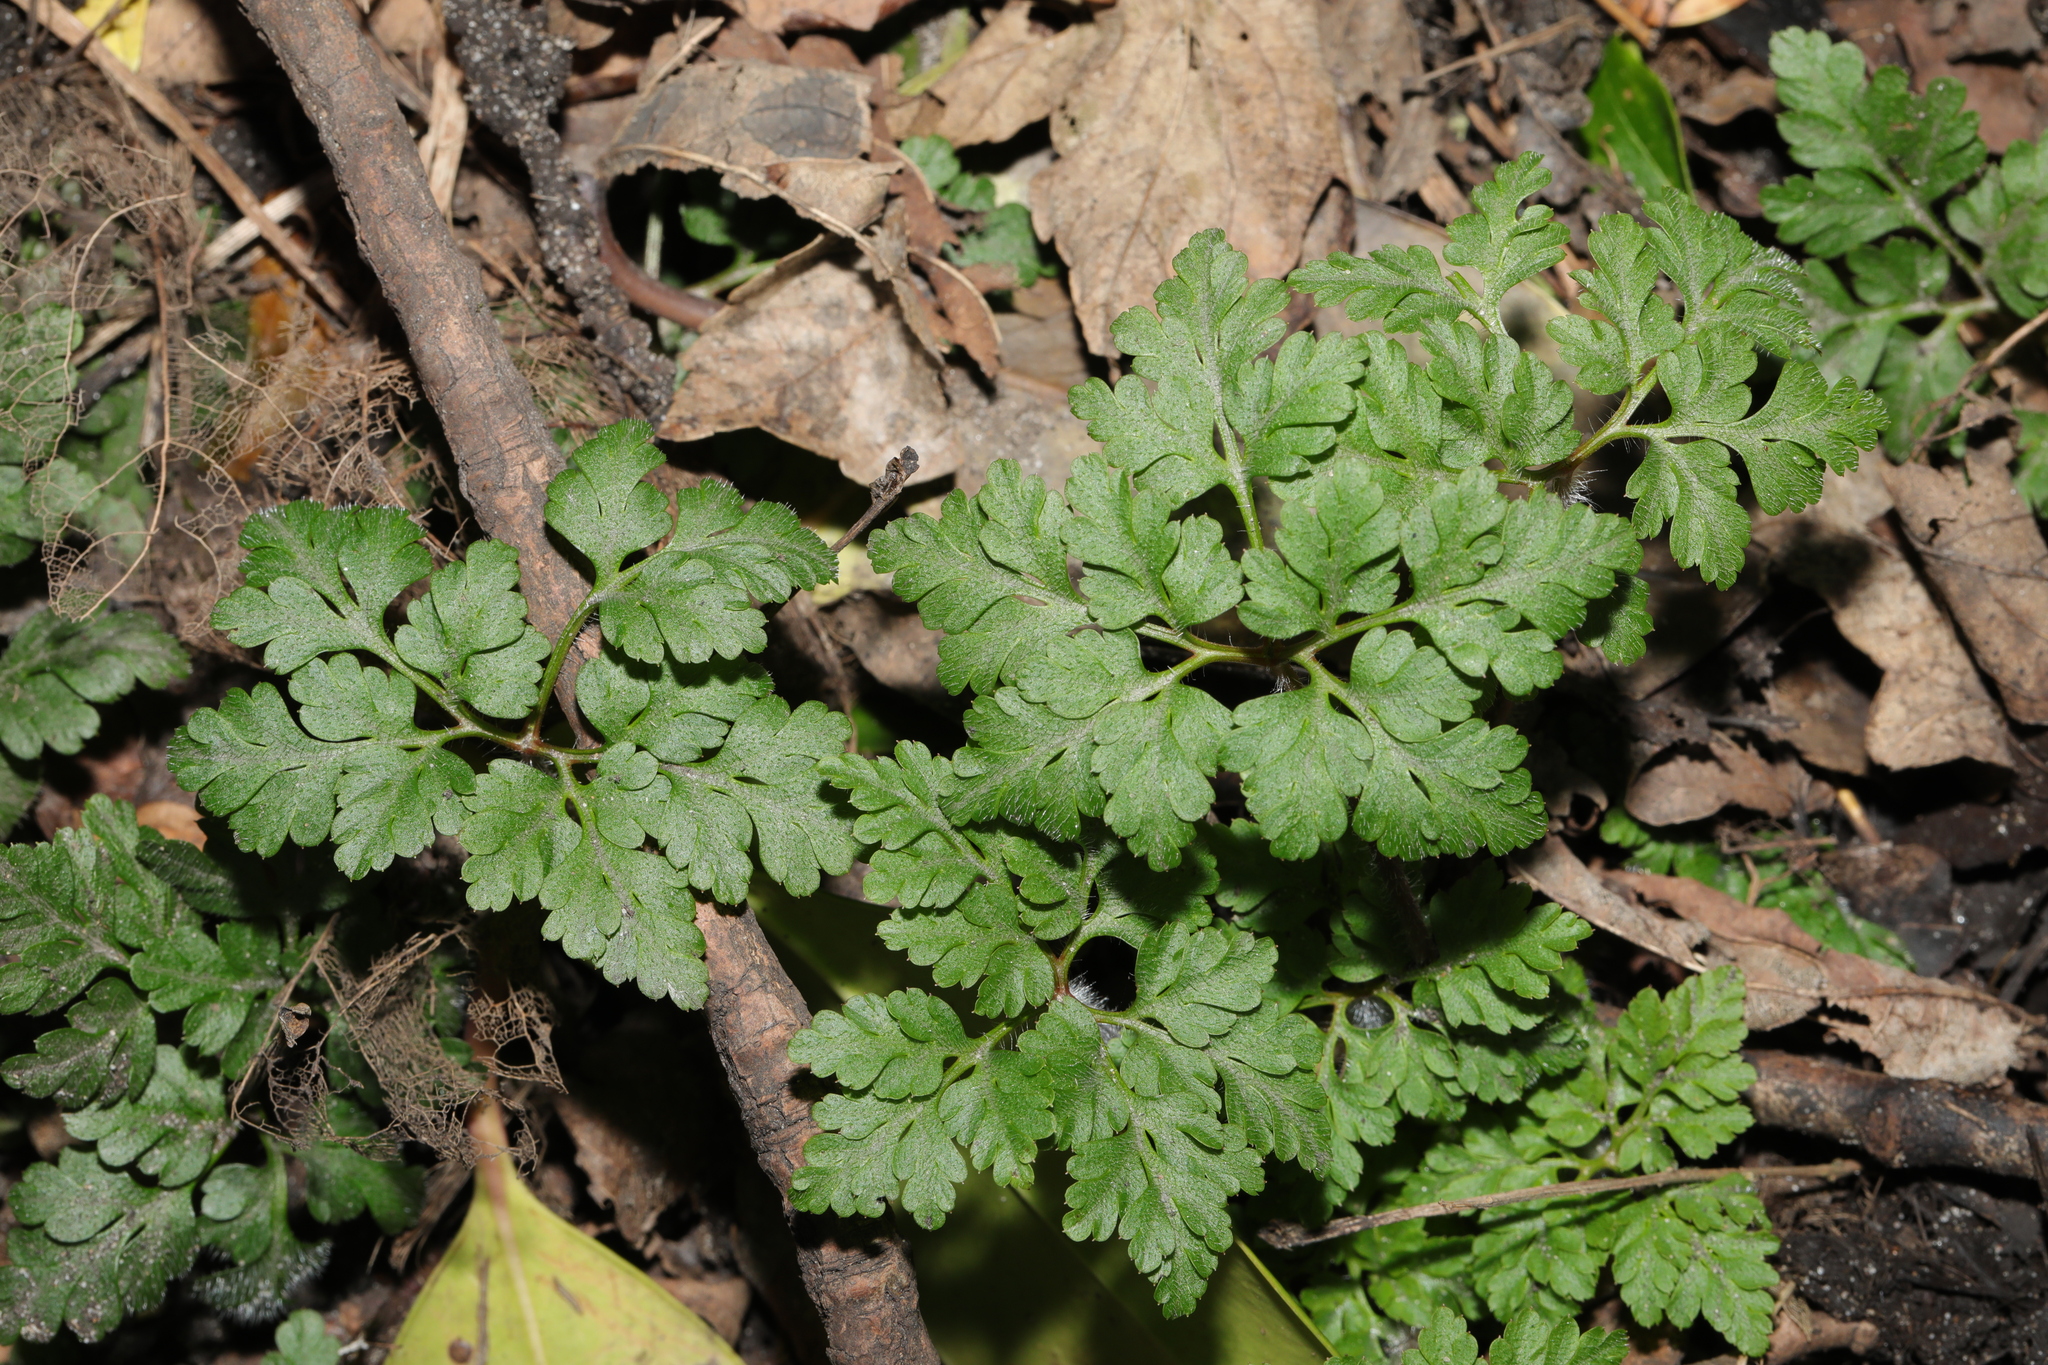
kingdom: Plantae
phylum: Tracheophyta
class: Magnoliopsida
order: Geraniales
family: Geraniaceae
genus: Geranium
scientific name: Geranium robertianum
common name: Herb-robert
